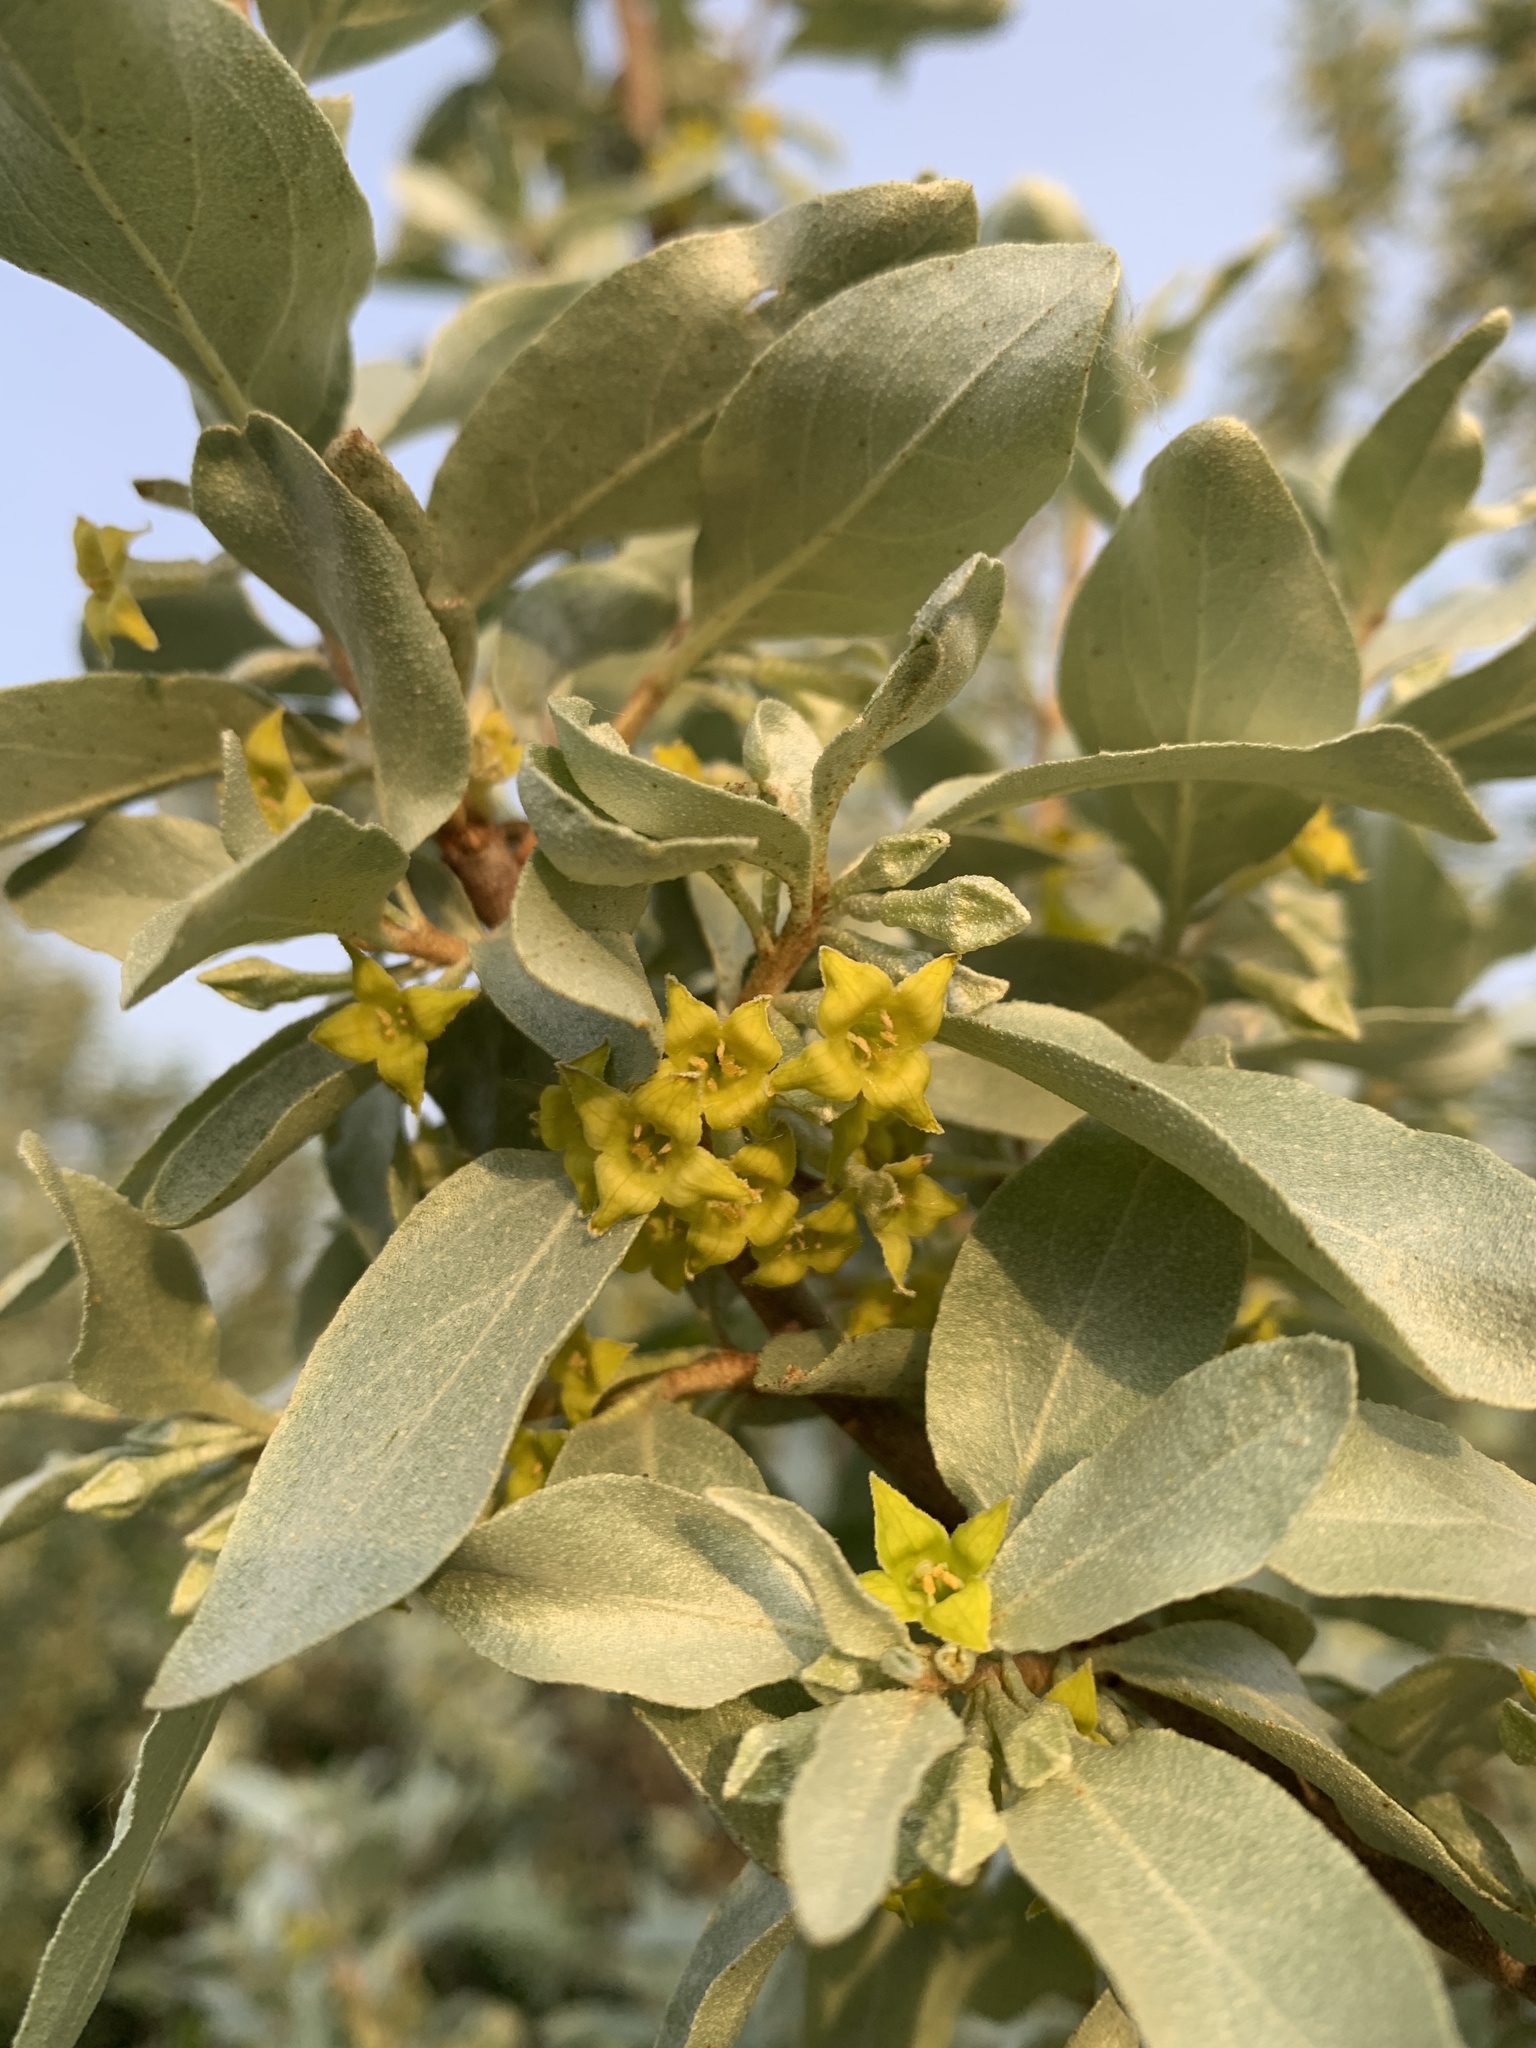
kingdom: Plantae
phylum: Tracheophyta
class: Magnoliopsida
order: Rosales
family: Elaeagnaceae
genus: Elaeagnus
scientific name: Elaeagnus commutata
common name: Silverberry
